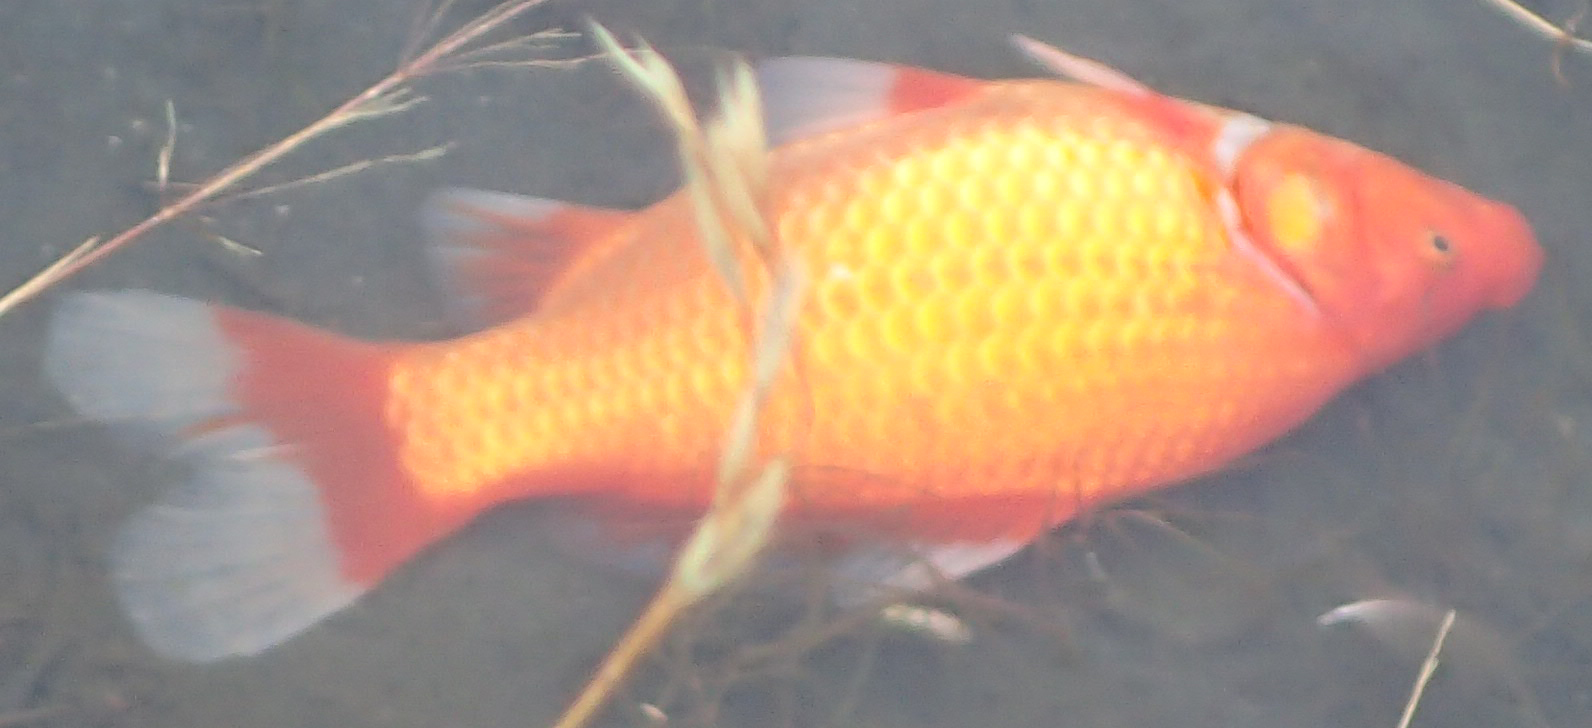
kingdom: Animalia
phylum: Chordata
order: Cypriniformes
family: Cyprinidae
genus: Carassius
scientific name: Carassius auratus
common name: Goldfish
